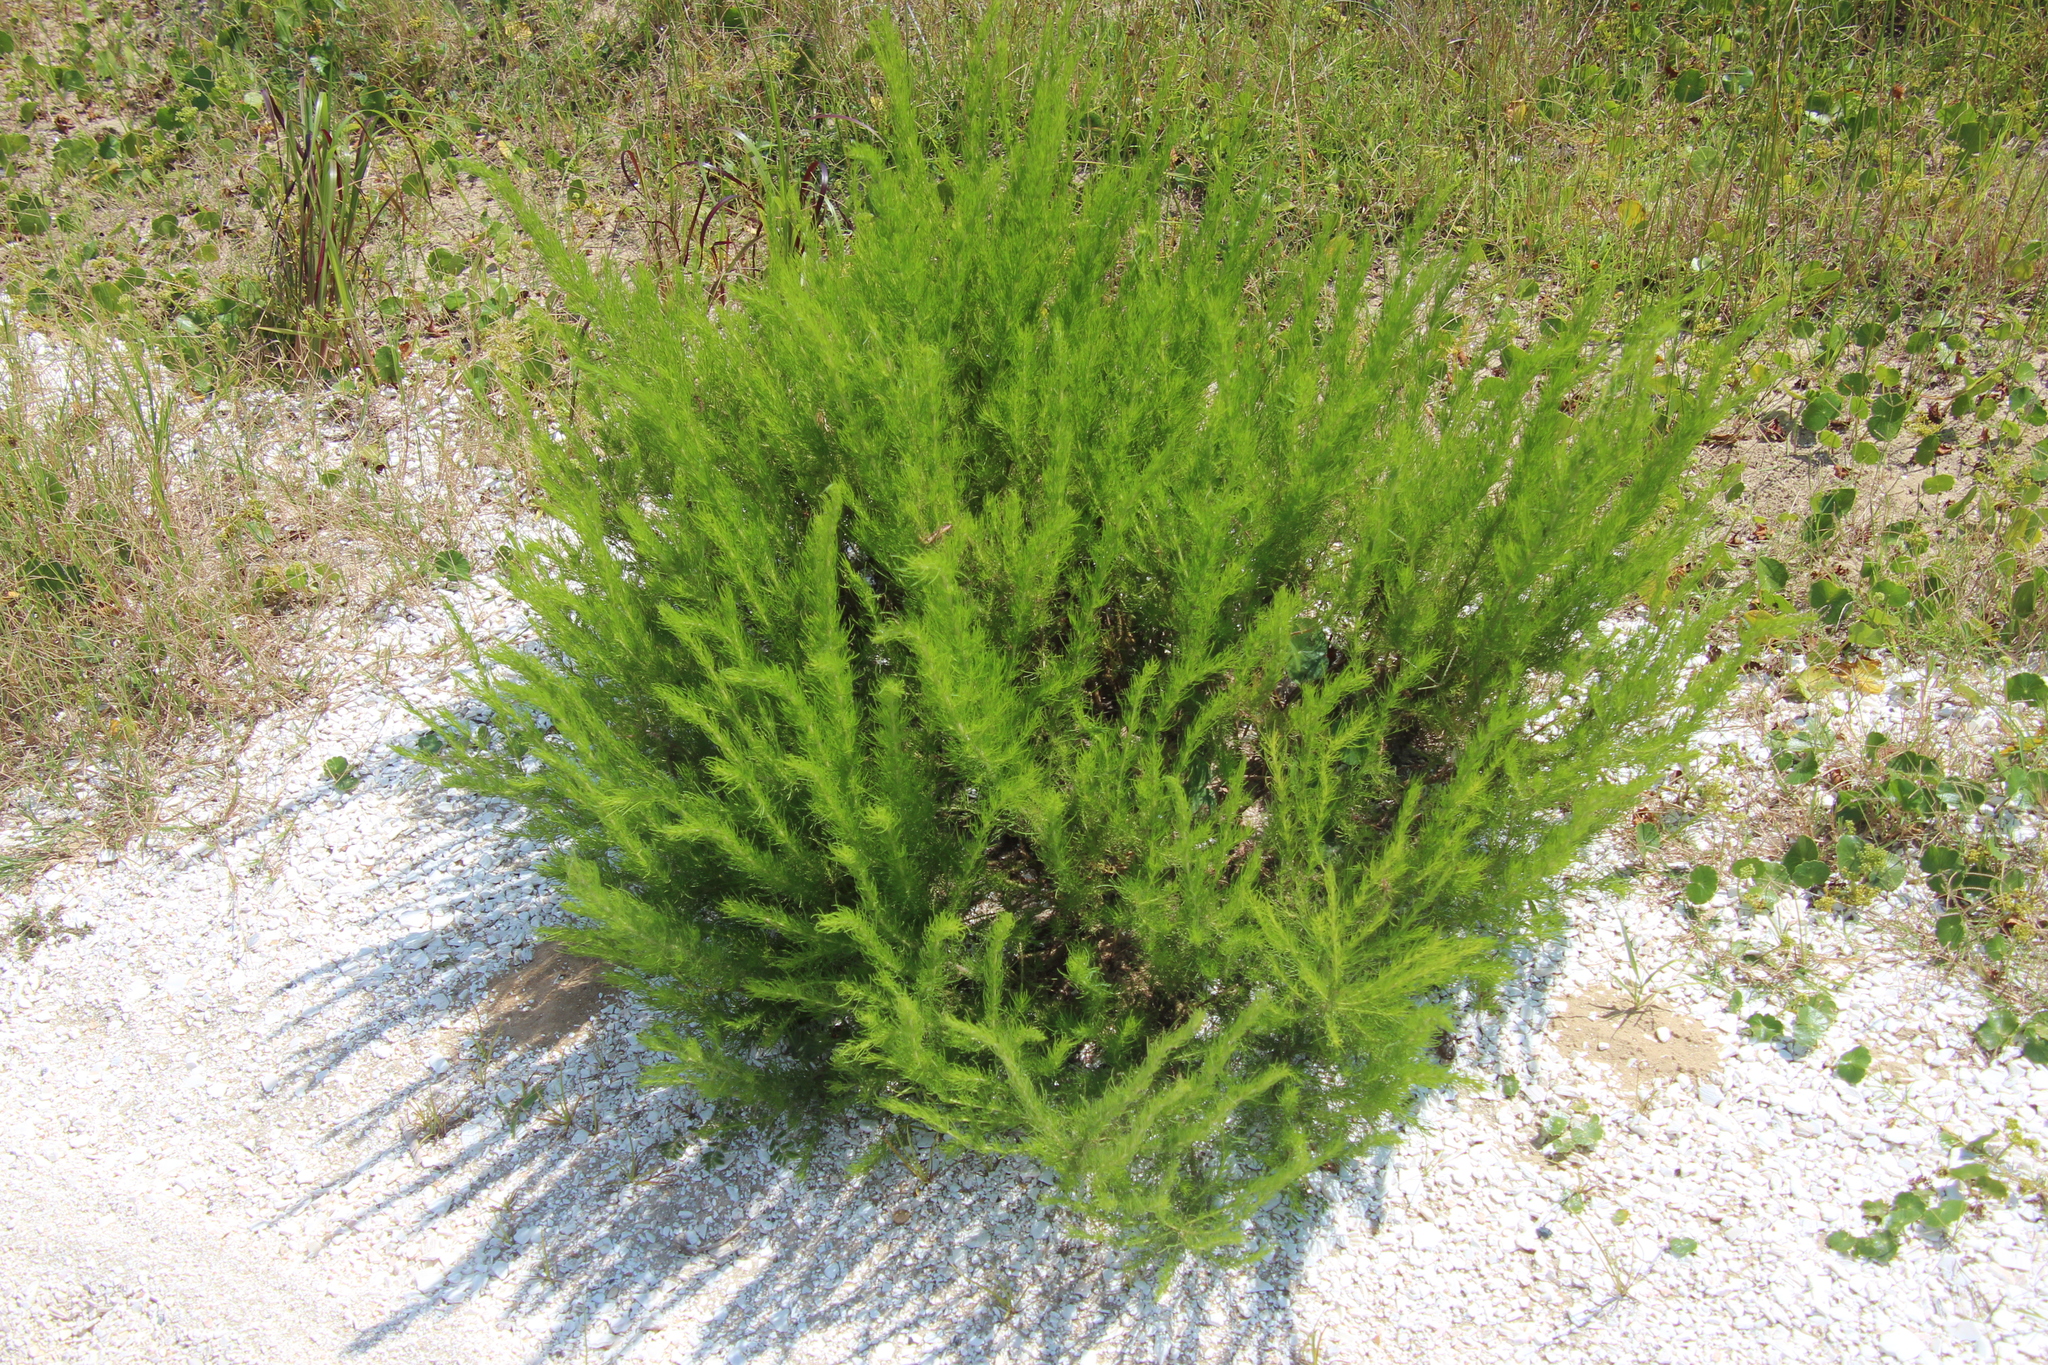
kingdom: Plantae
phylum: Tracheophyta
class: Magnoliopsida
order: Asterales
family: Asteraceae
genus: Eupatorium
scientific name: Eupatorium capillifolium
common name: Dog-fennel
